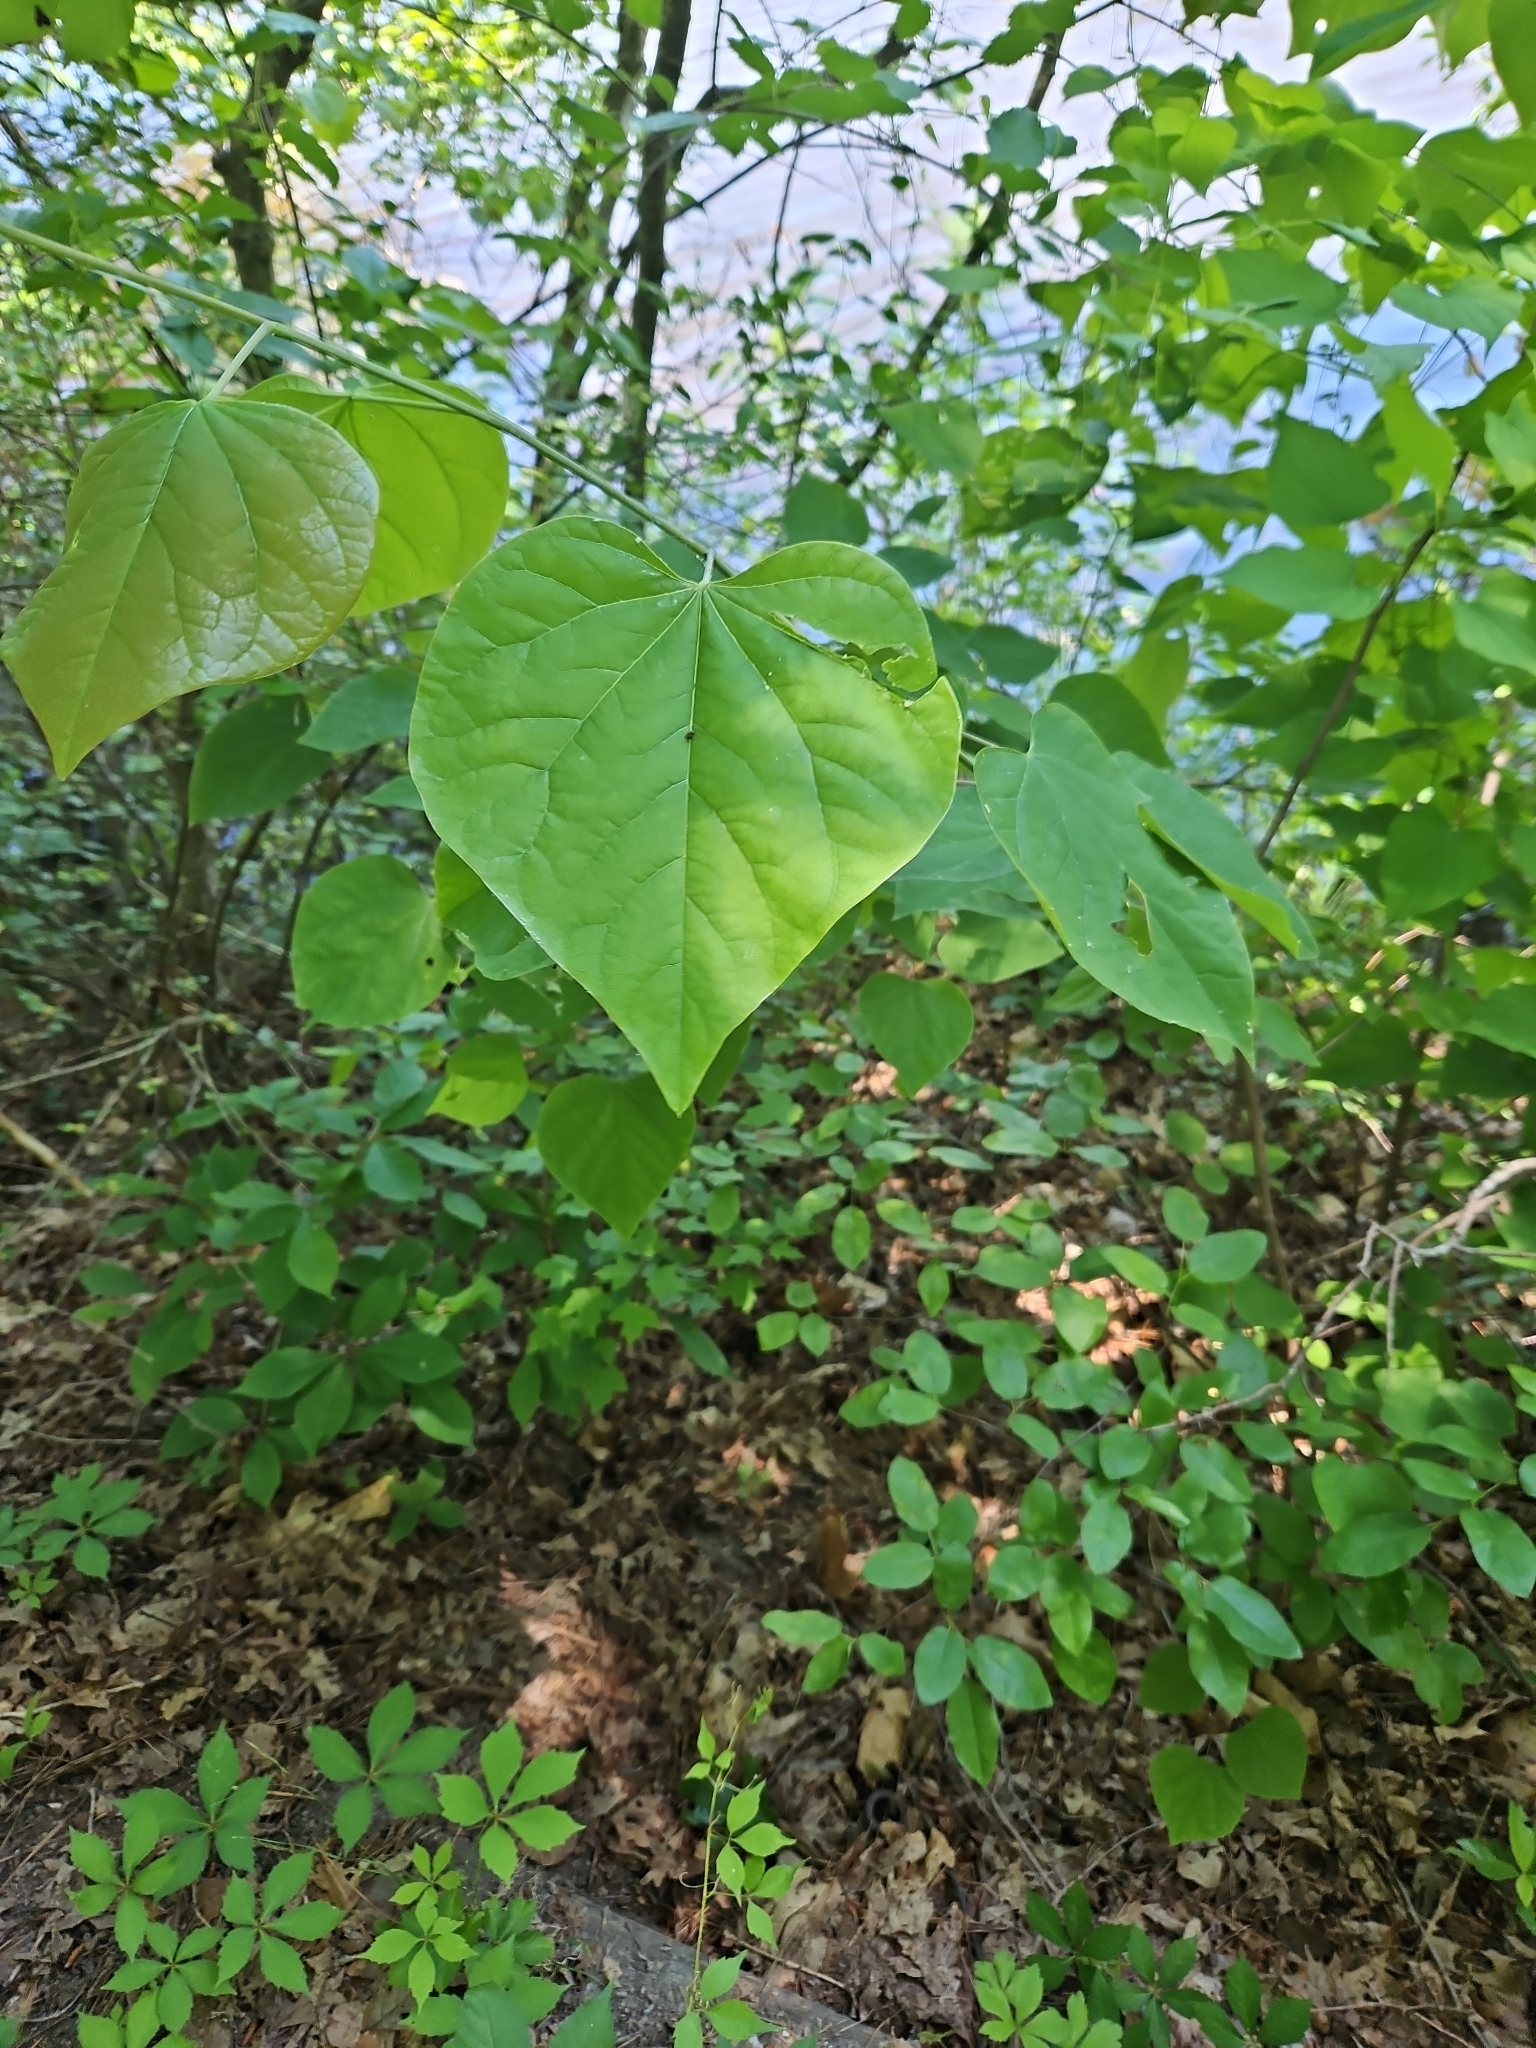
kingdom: Plantae
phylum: Tracheophyta
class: Magnoliopsida
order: Fabales
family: Fabaceae
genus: Cercis
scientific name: Cercis canadensis
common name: Eastern redbud
